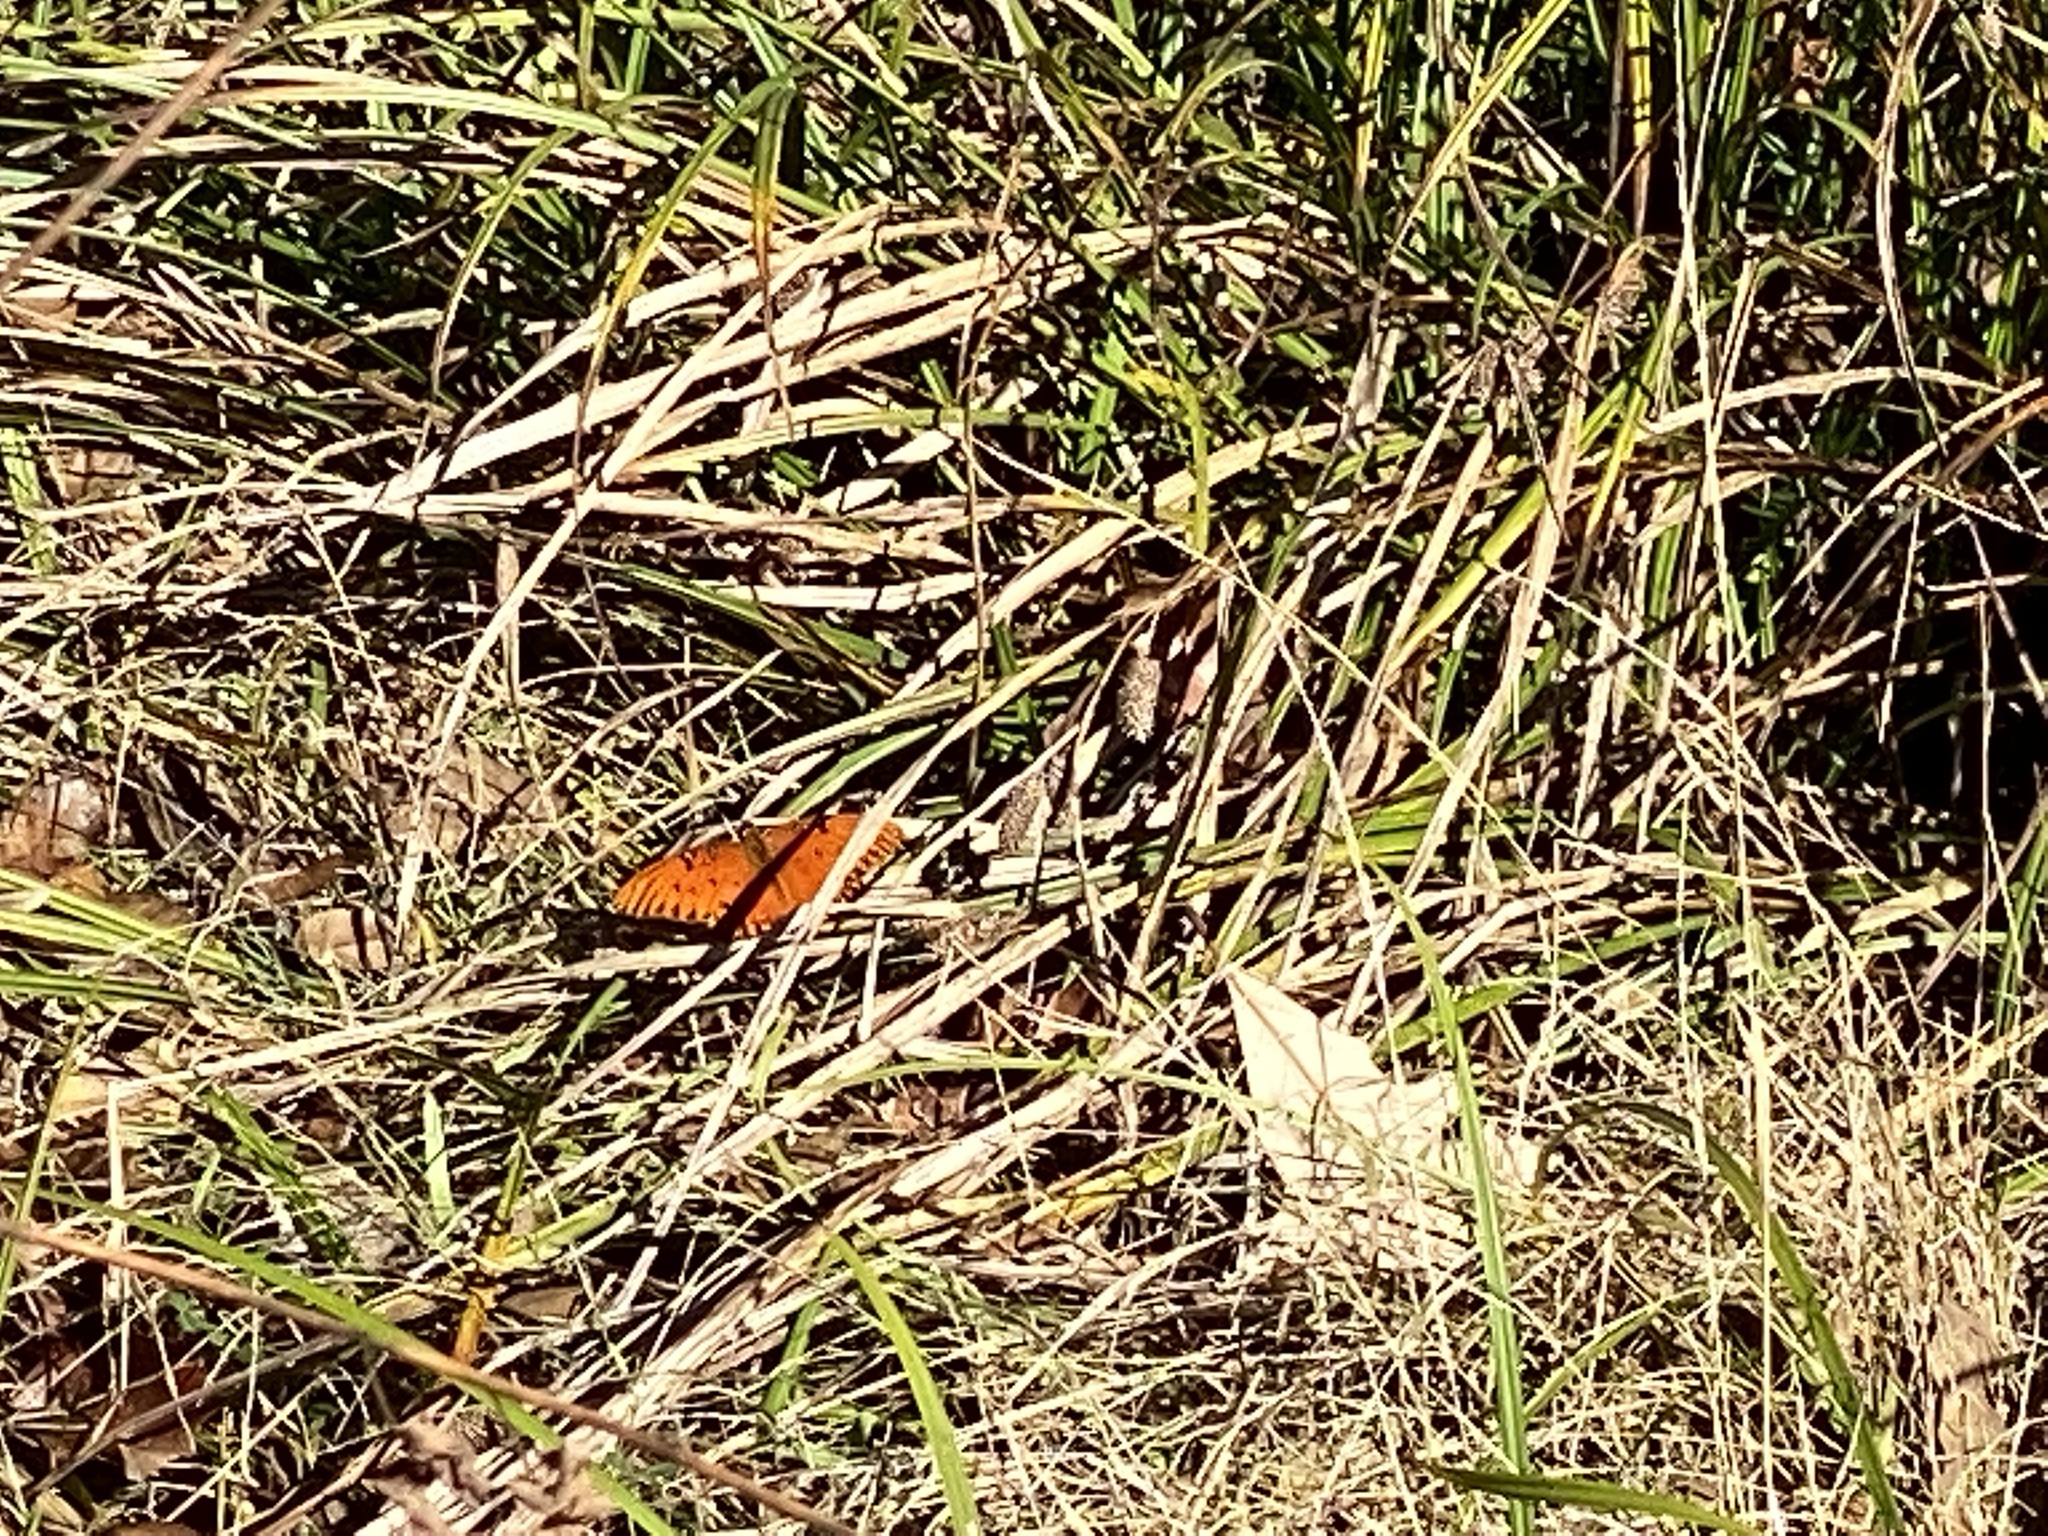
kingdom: Animalia
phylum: Arthropoda
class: Insecta
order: Lepidoptera
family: Nymphalidae
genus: Dione
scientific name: Dione vanillae
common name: Gulf fritillary
